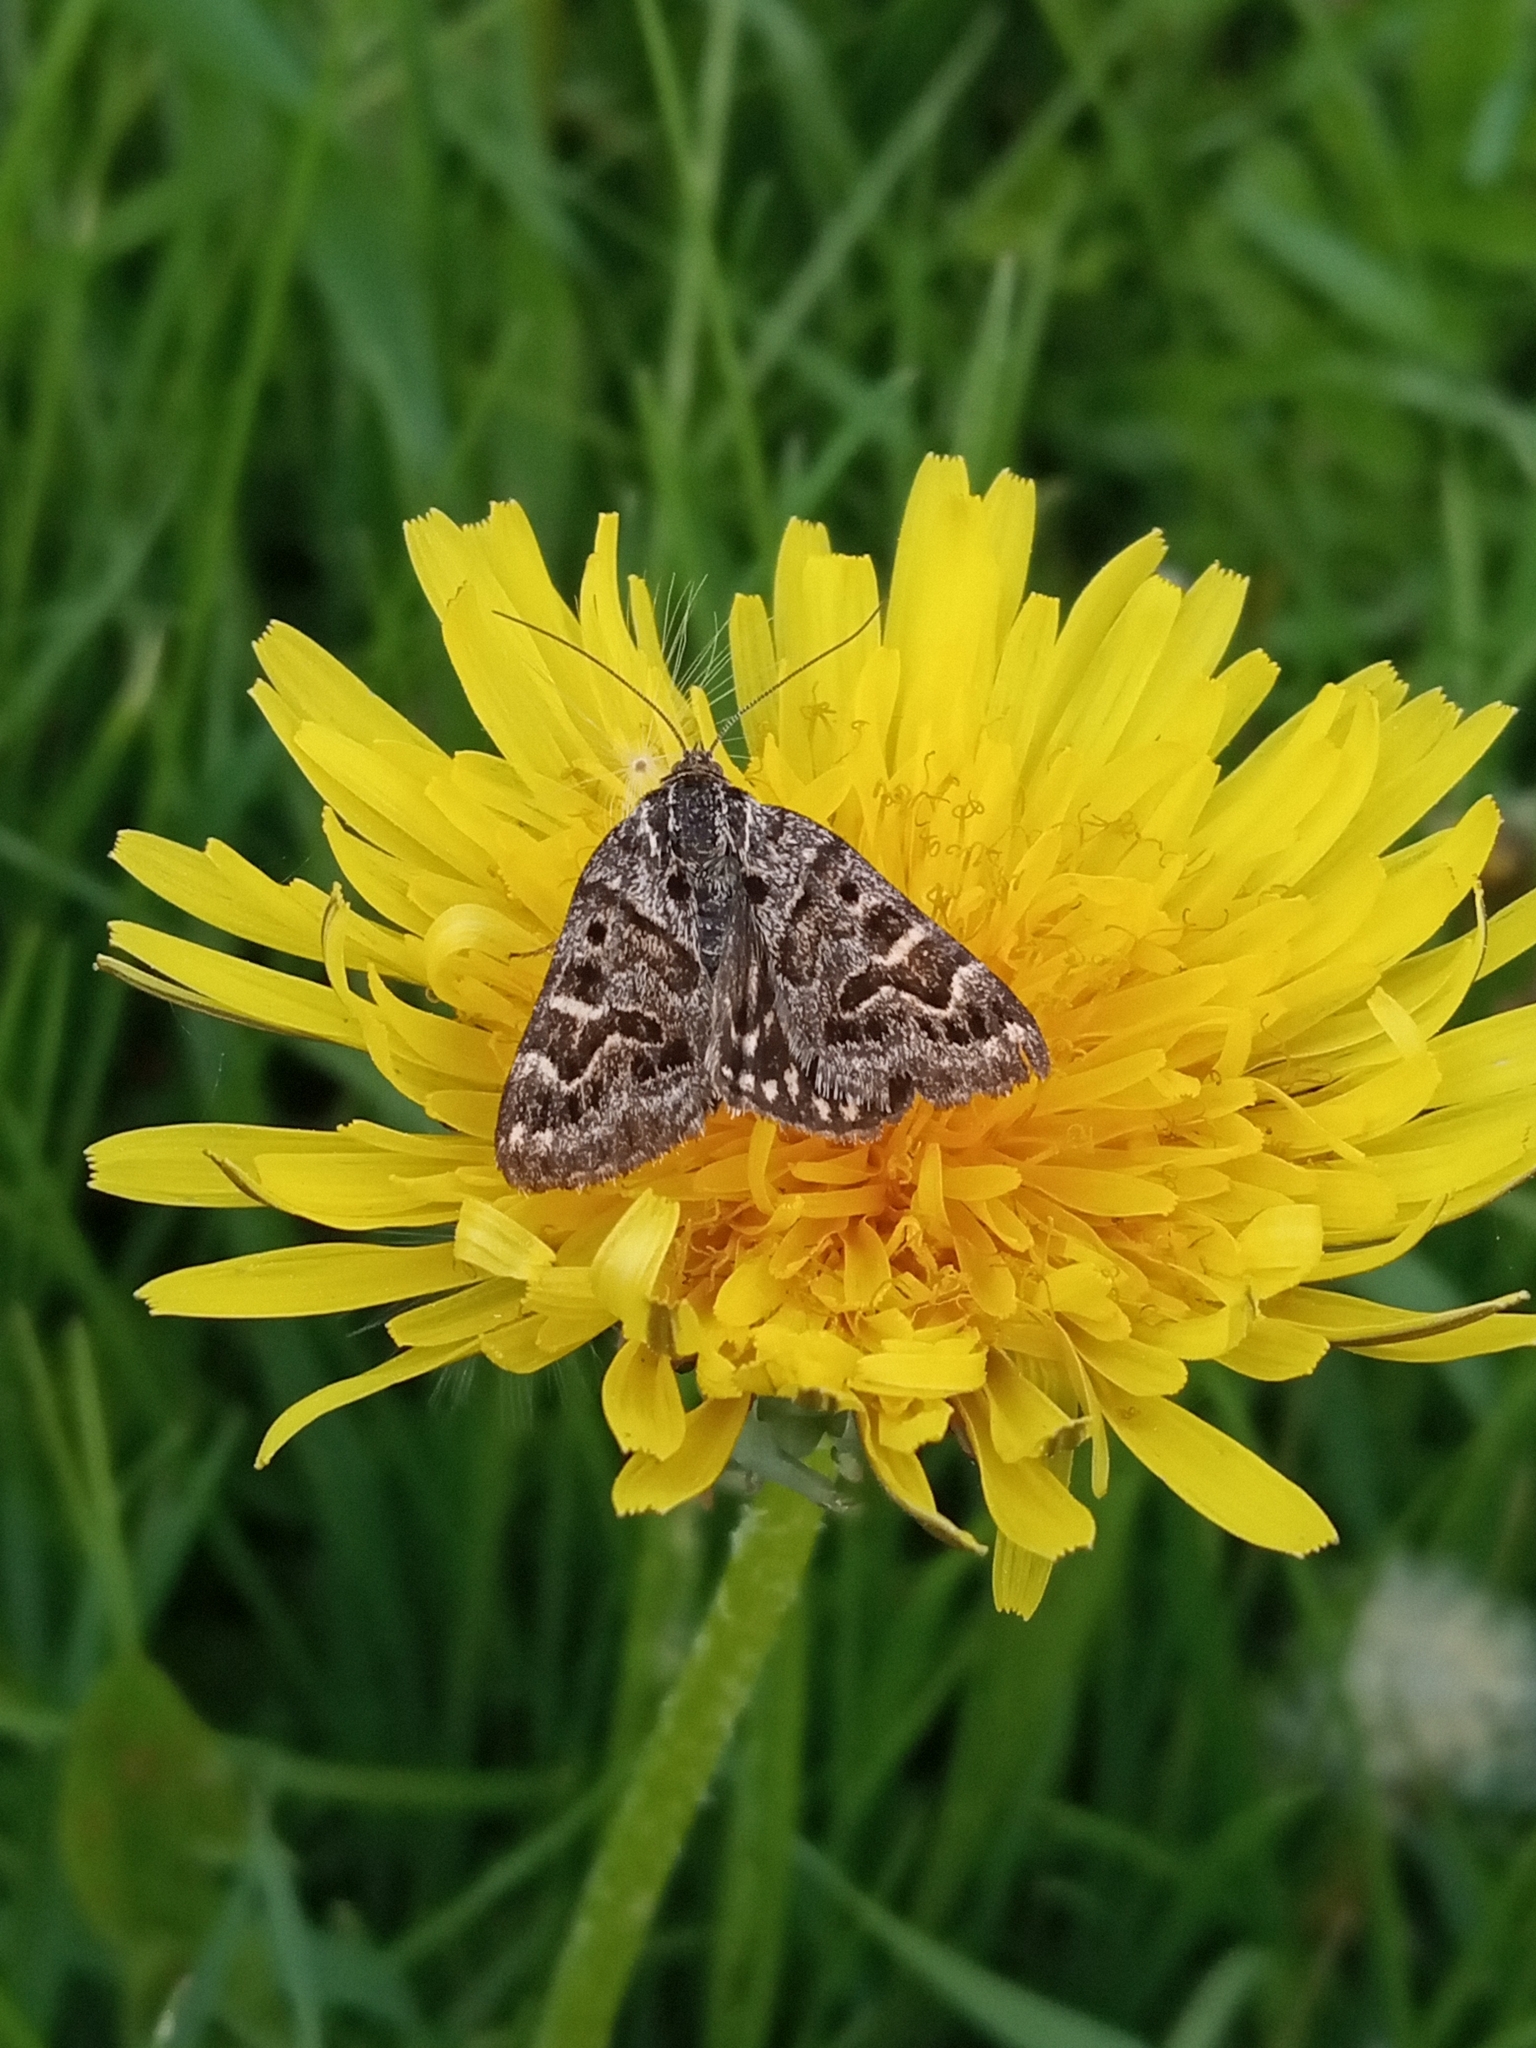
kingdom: Animalia
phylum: Arthropoda
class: Insecta
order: Lepidoptera
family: Erebidae
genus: Callistege
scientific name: Callistege mi
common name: Mother shipton
